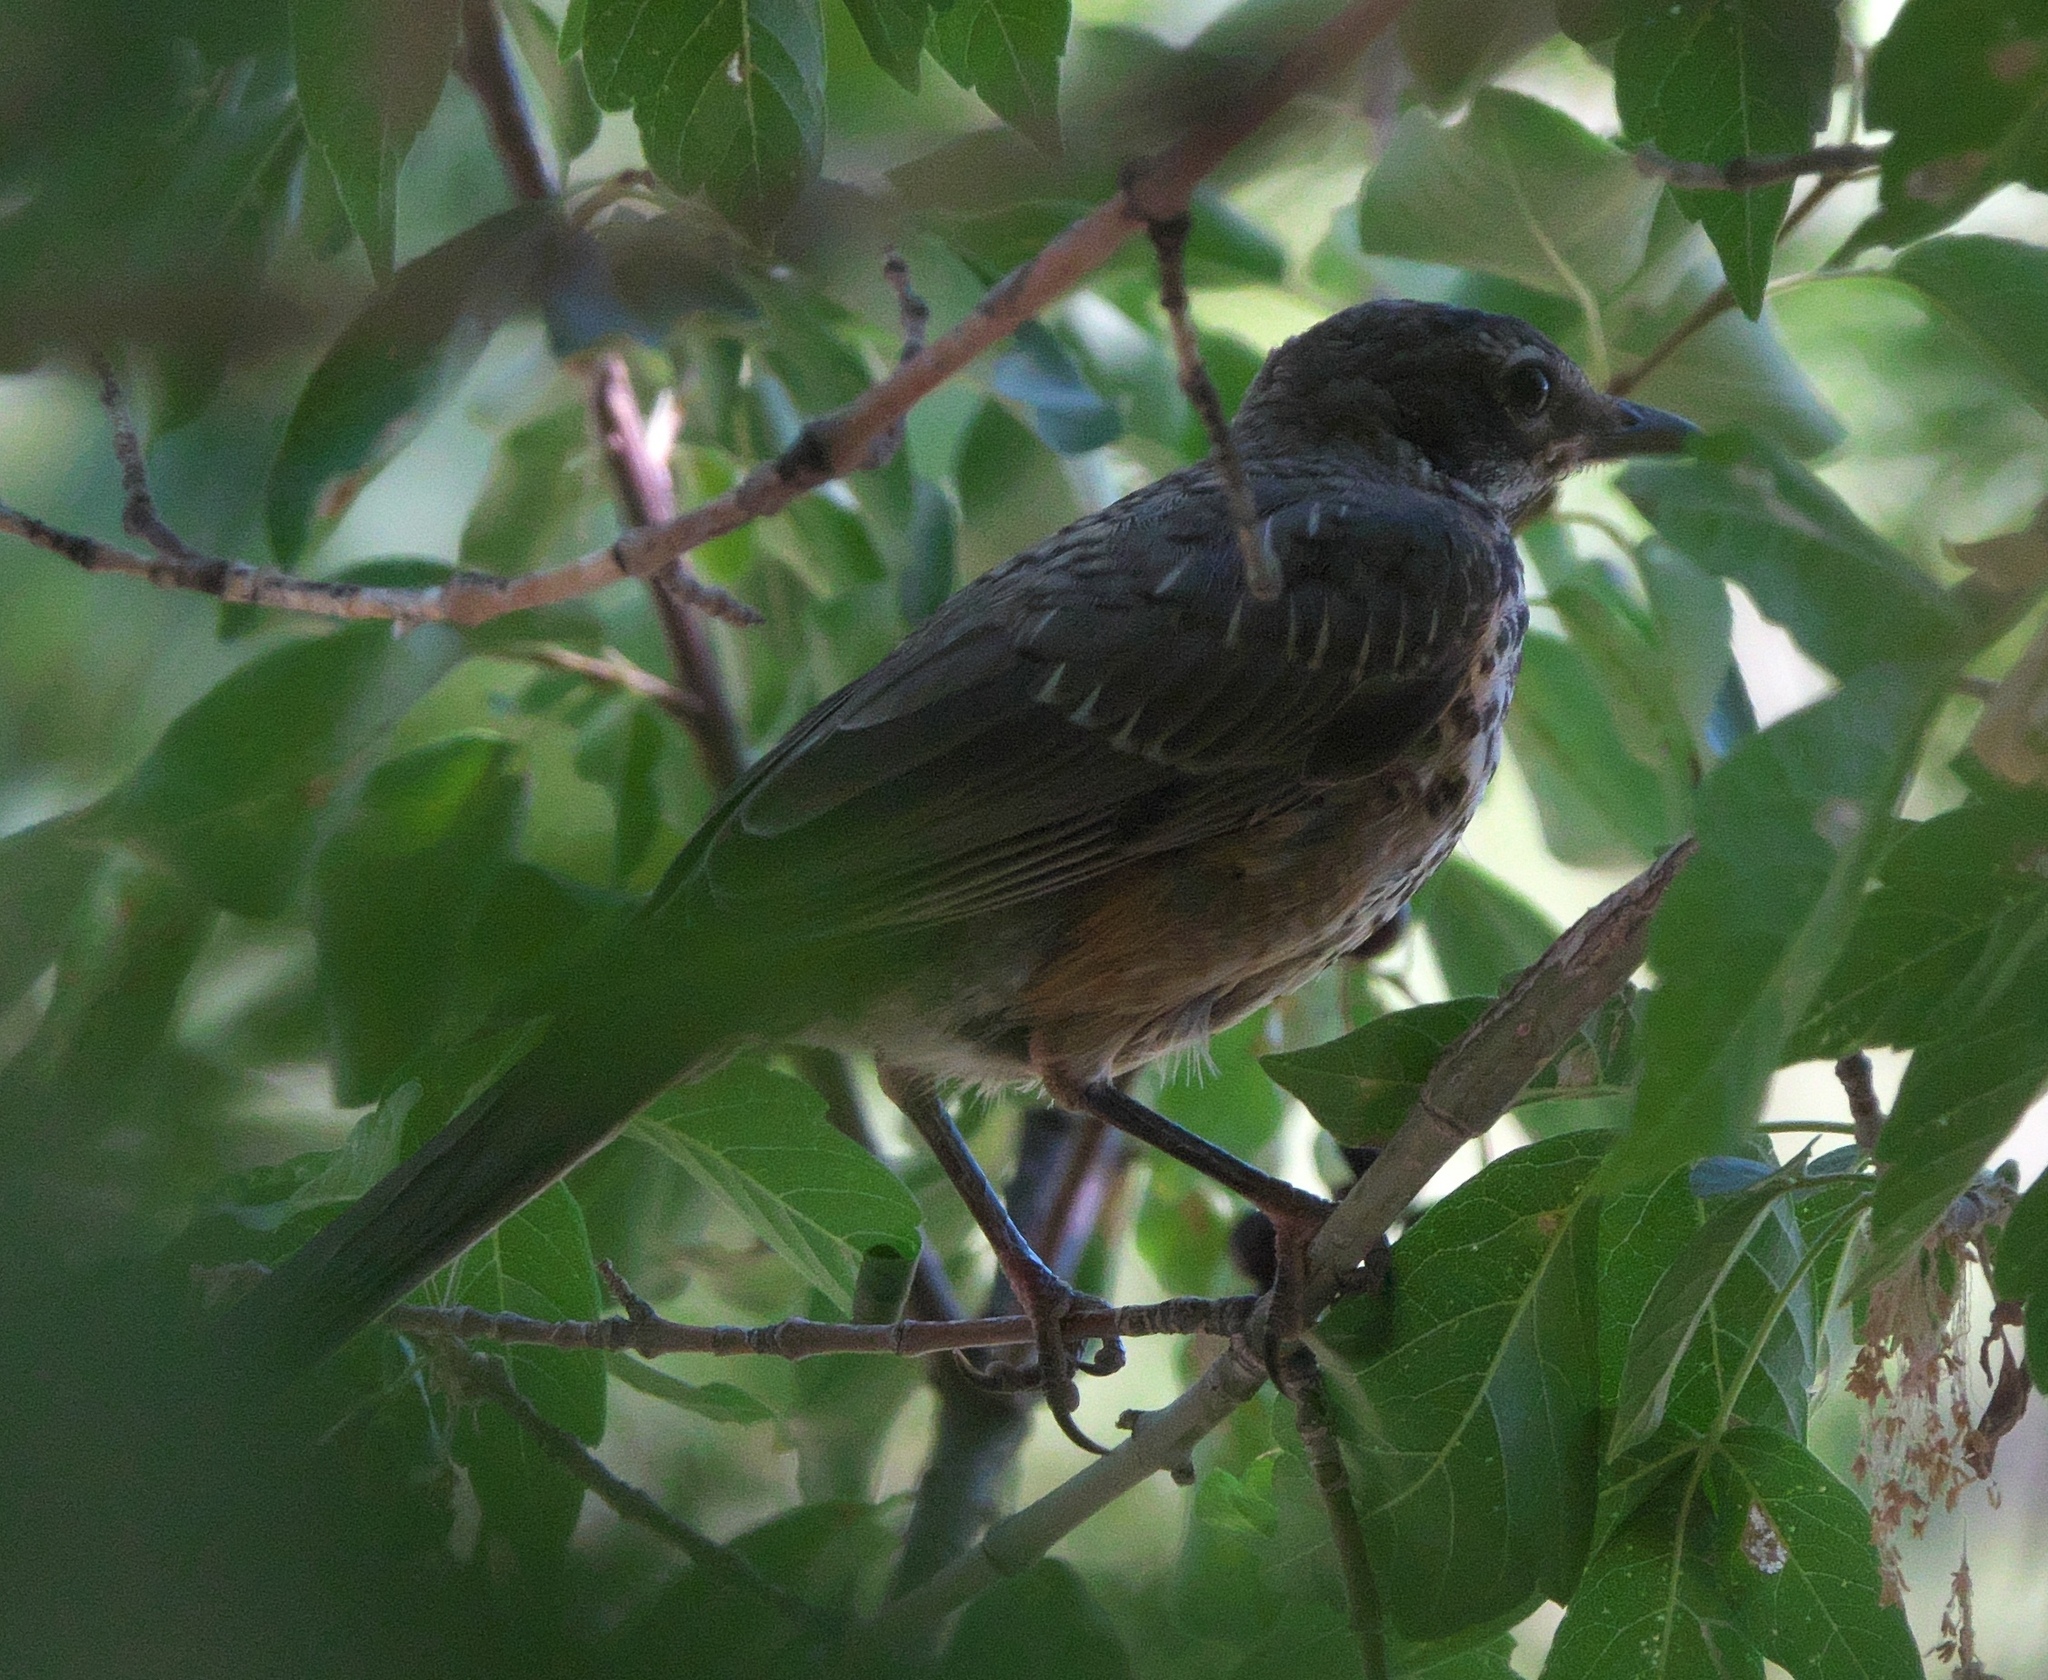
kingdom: Animalia
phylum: Chordata
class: Aves
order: Passeriformes
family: Turdidae
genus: Turdus
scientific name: Turdus migratorius
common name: American robin
